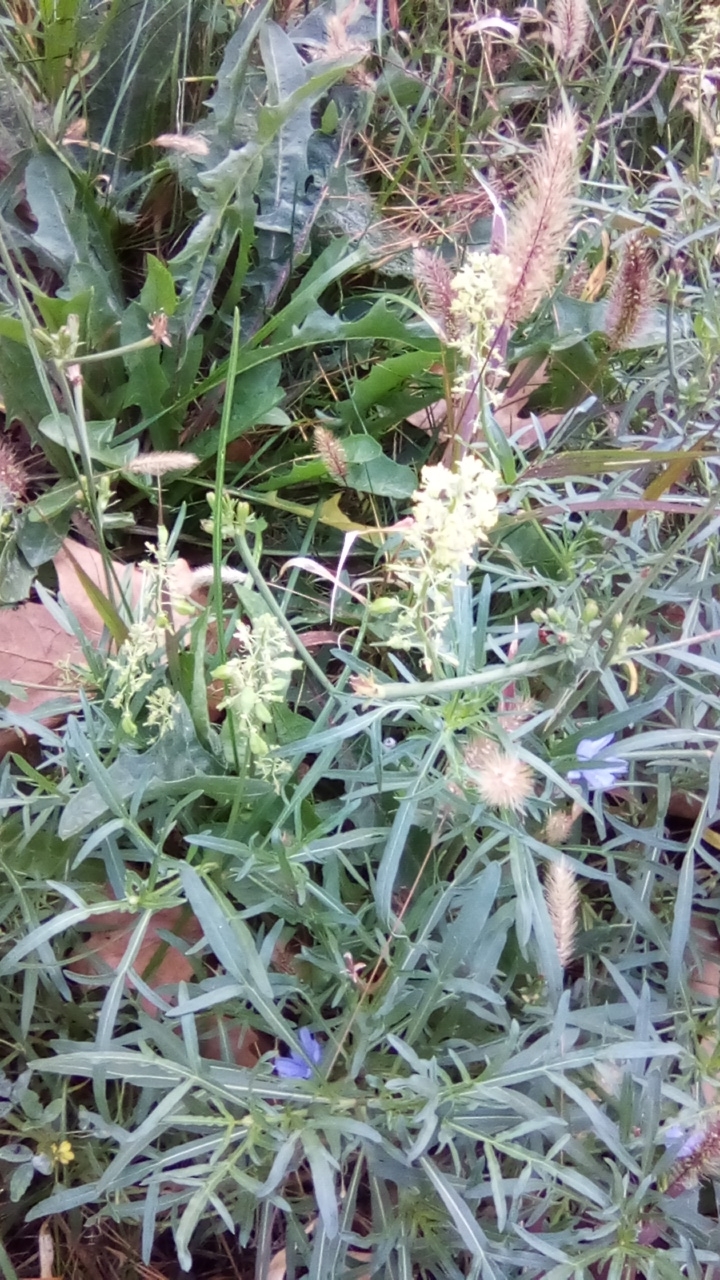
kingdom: Plantae
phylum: Tracheophyta
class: Magnoliopsida
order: Brassicales
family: Resedaceae
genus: Reseda
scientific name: Reseda lutea
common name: Wild mignonette
